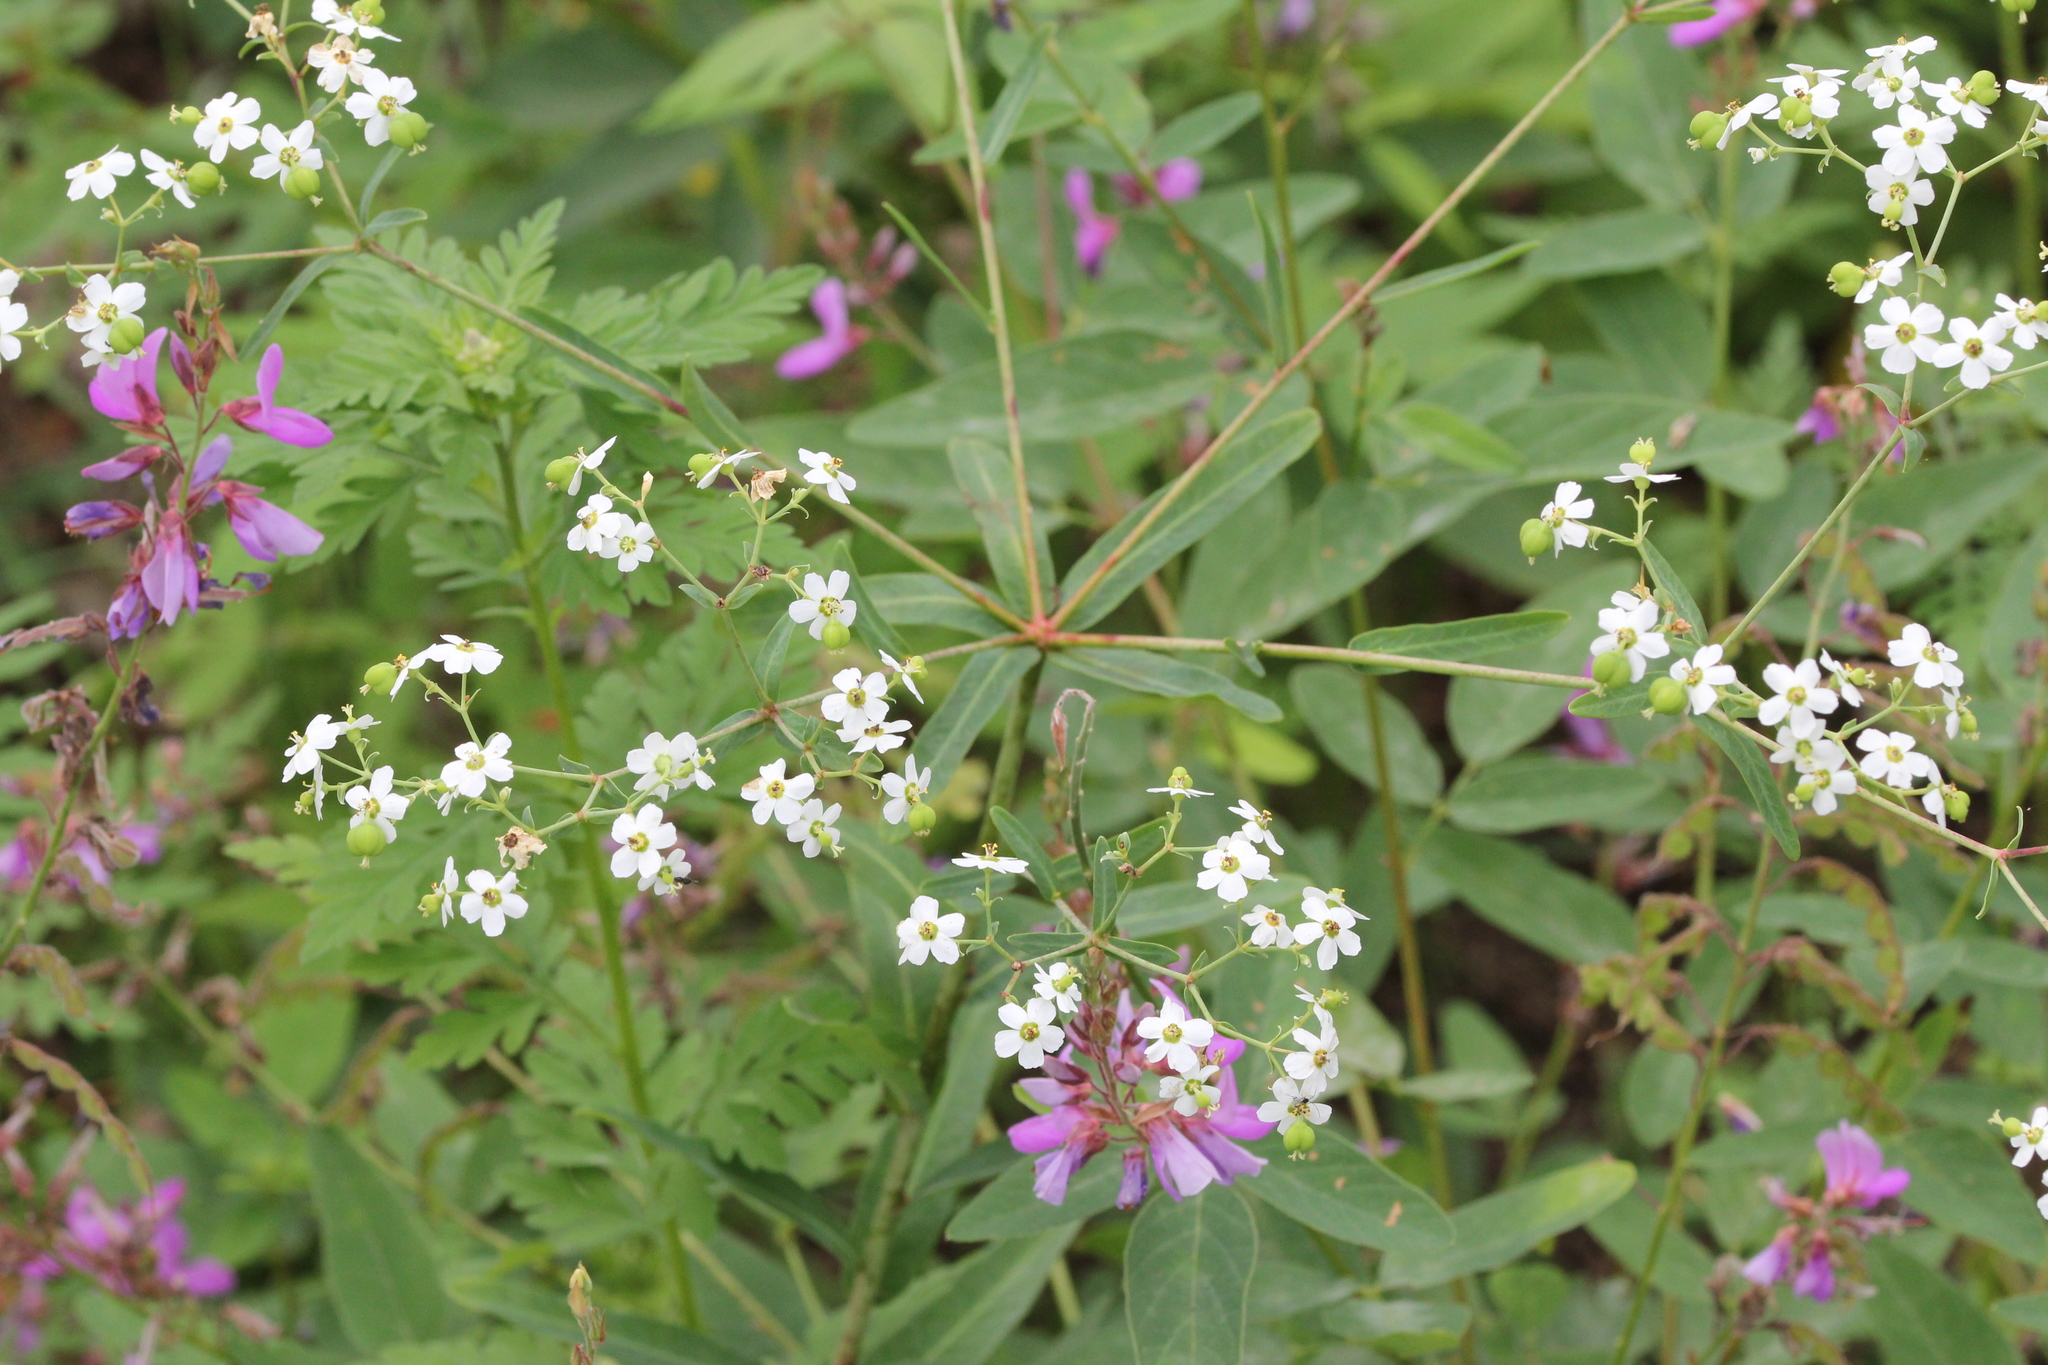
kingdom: Plantae
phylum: Tracheophyta
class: Magnoliopsida
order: Malpighiales
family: Euphorbiaceae
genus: Euphorbia
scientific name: Euphorbia corollata
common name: Flowering spurge
